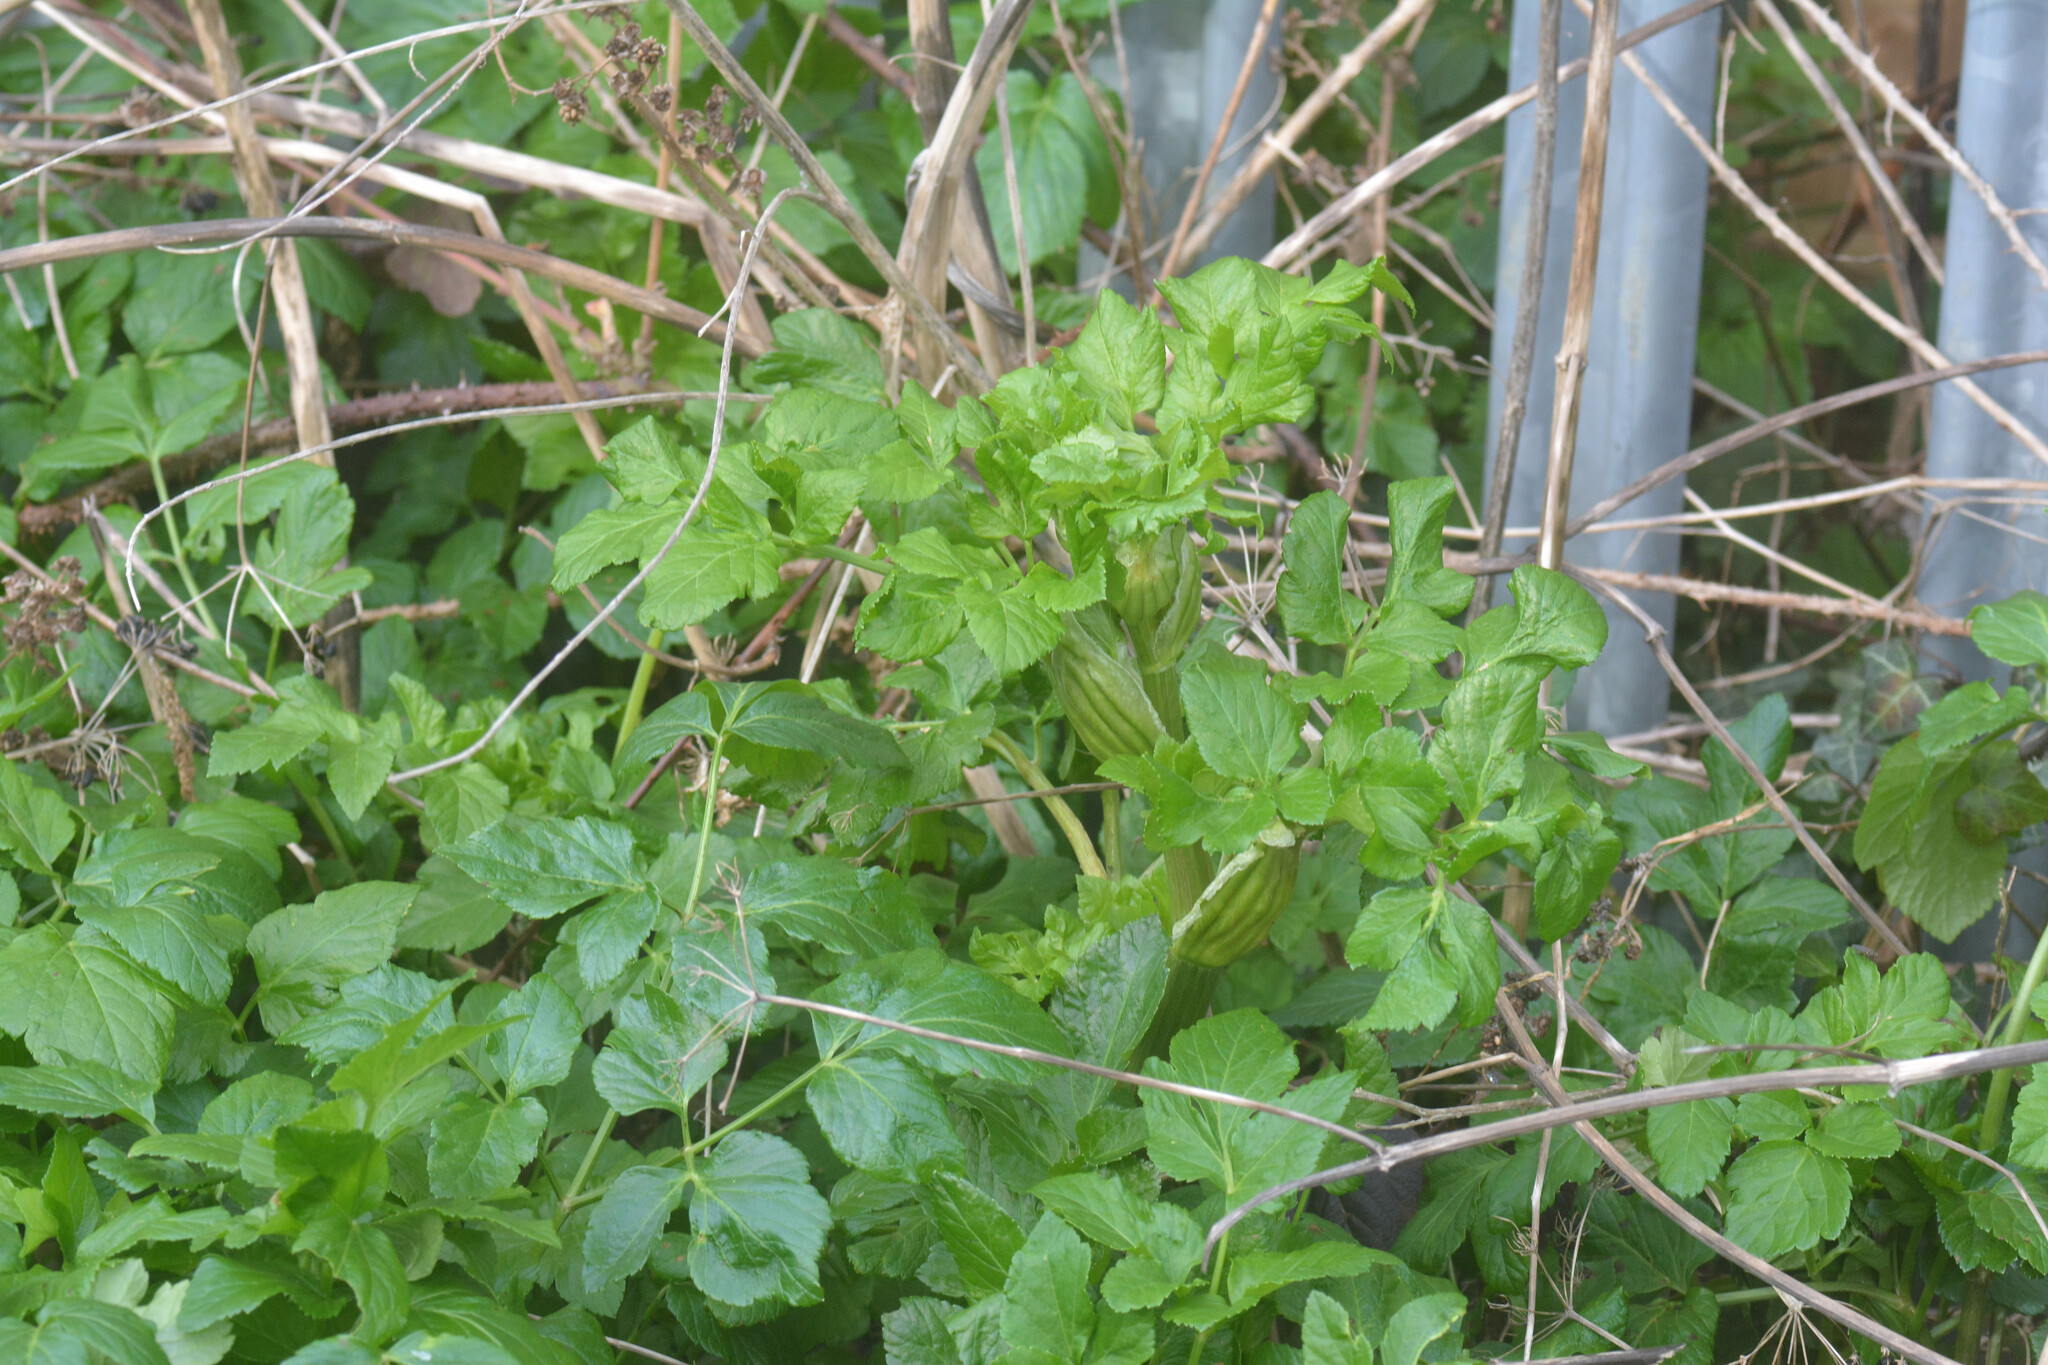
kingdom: Plantae
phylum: Tracheophyta
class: Magnoliopsida
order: Apiales
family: Apiaceae
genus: Smyrnium
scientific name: Smyrnium olusatrum
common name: Alexanders
